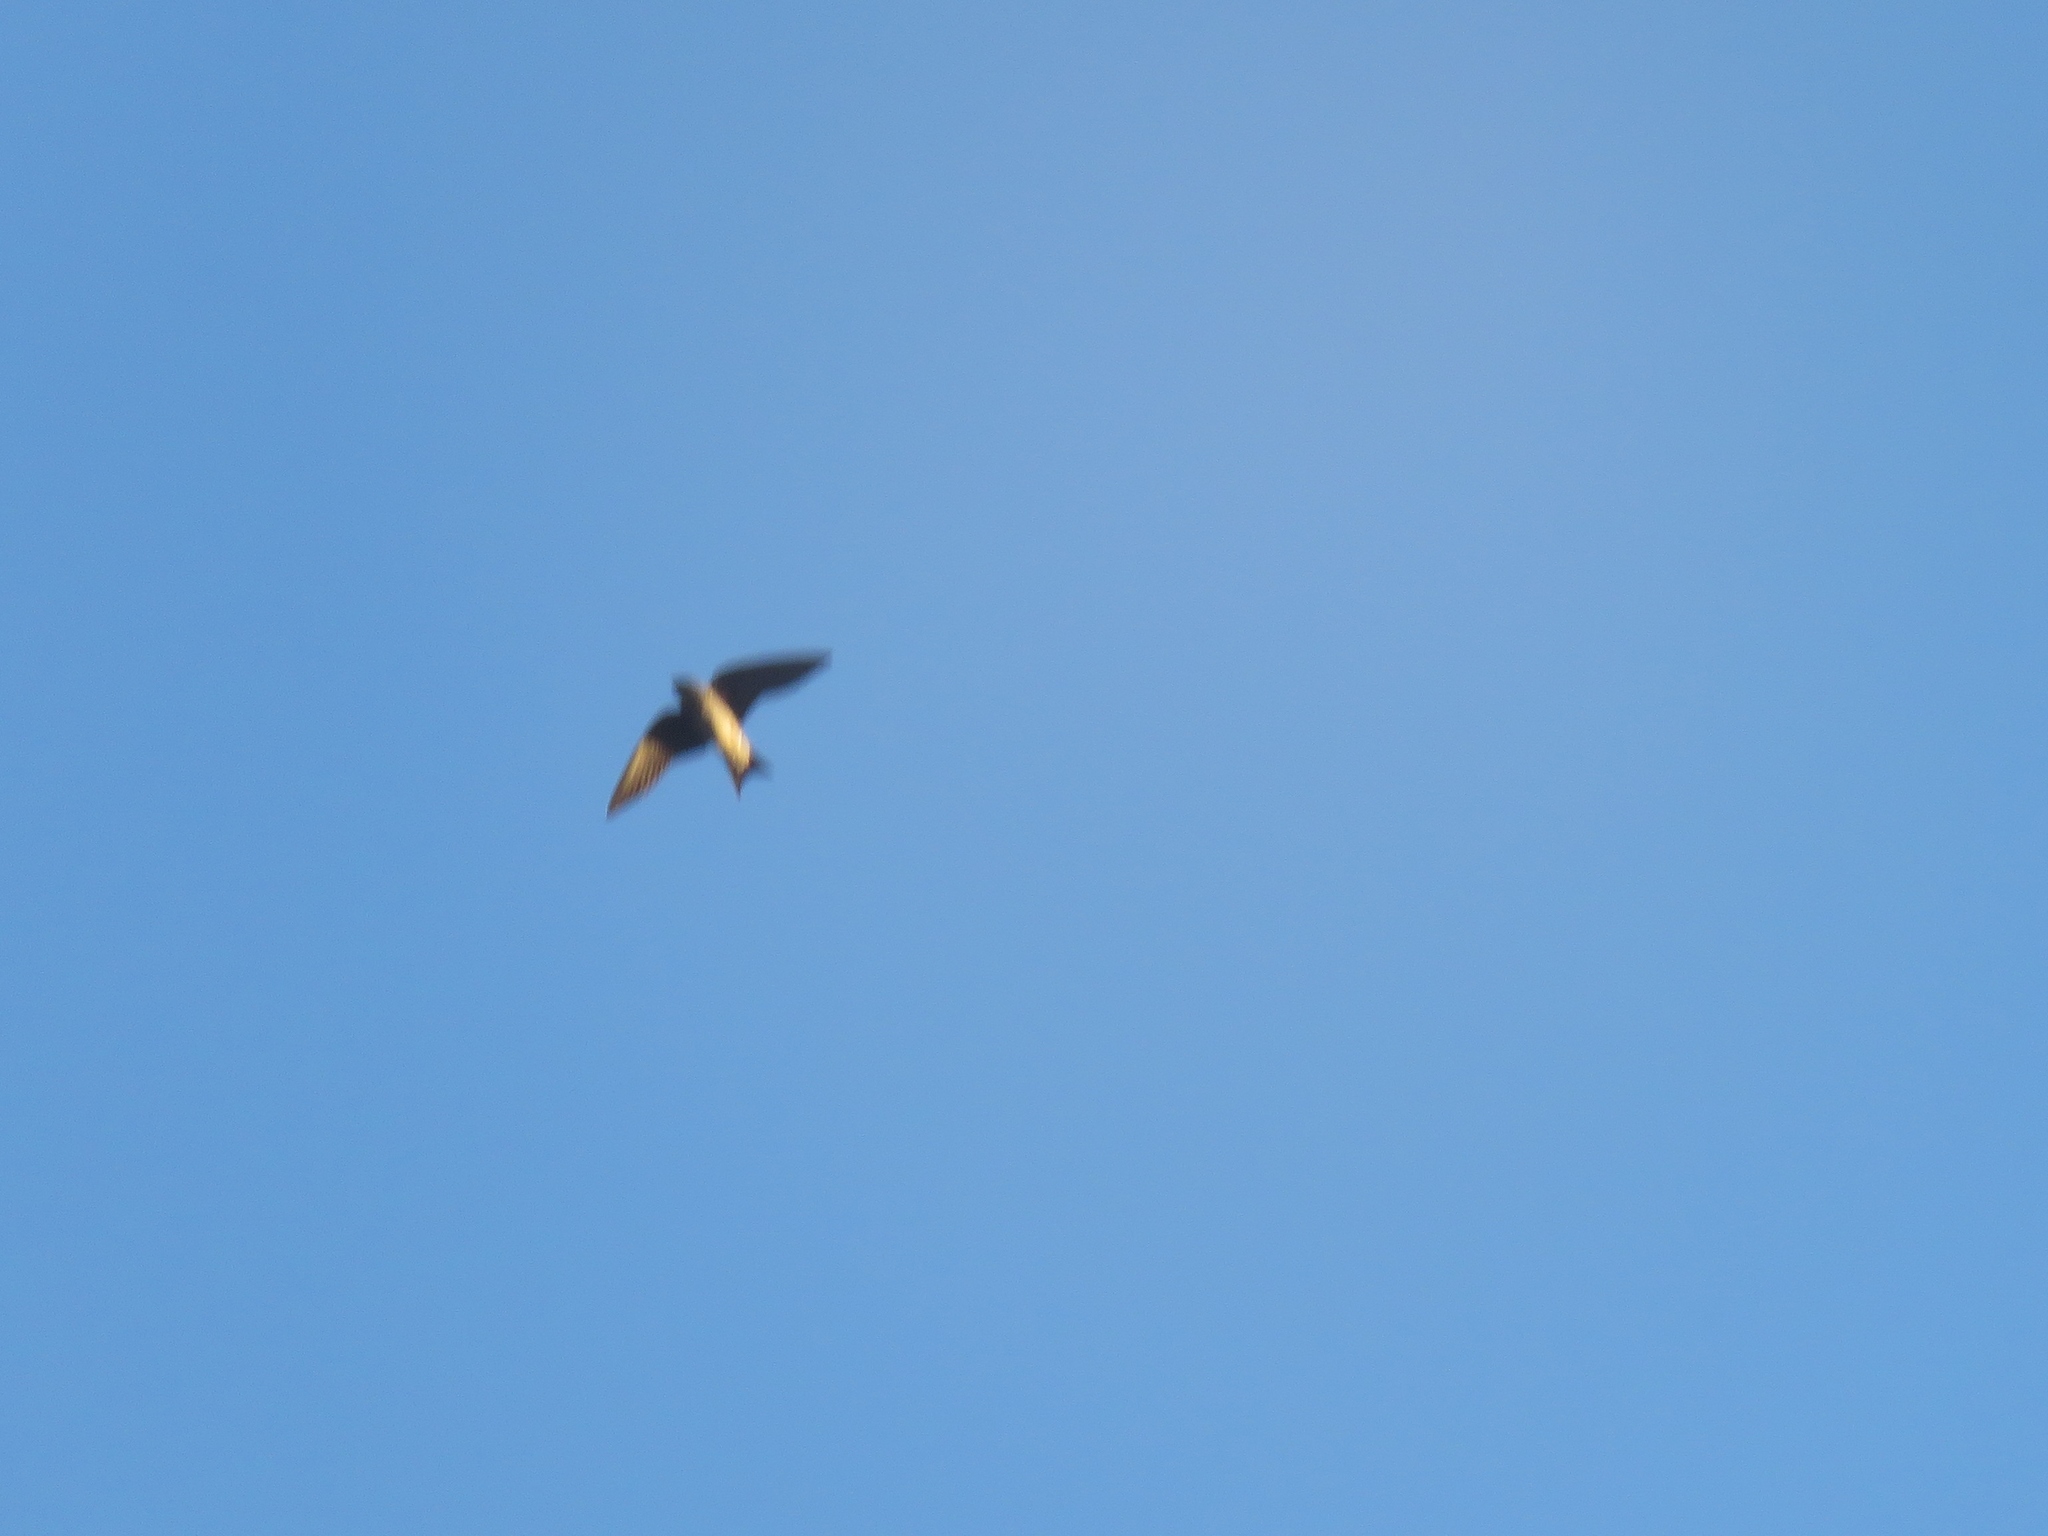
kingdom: Animalia
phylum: Chordata
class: Aves
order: Passeriformes
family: Hirundinidae
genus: Progne
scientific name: Progne subis
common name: Purple martin
